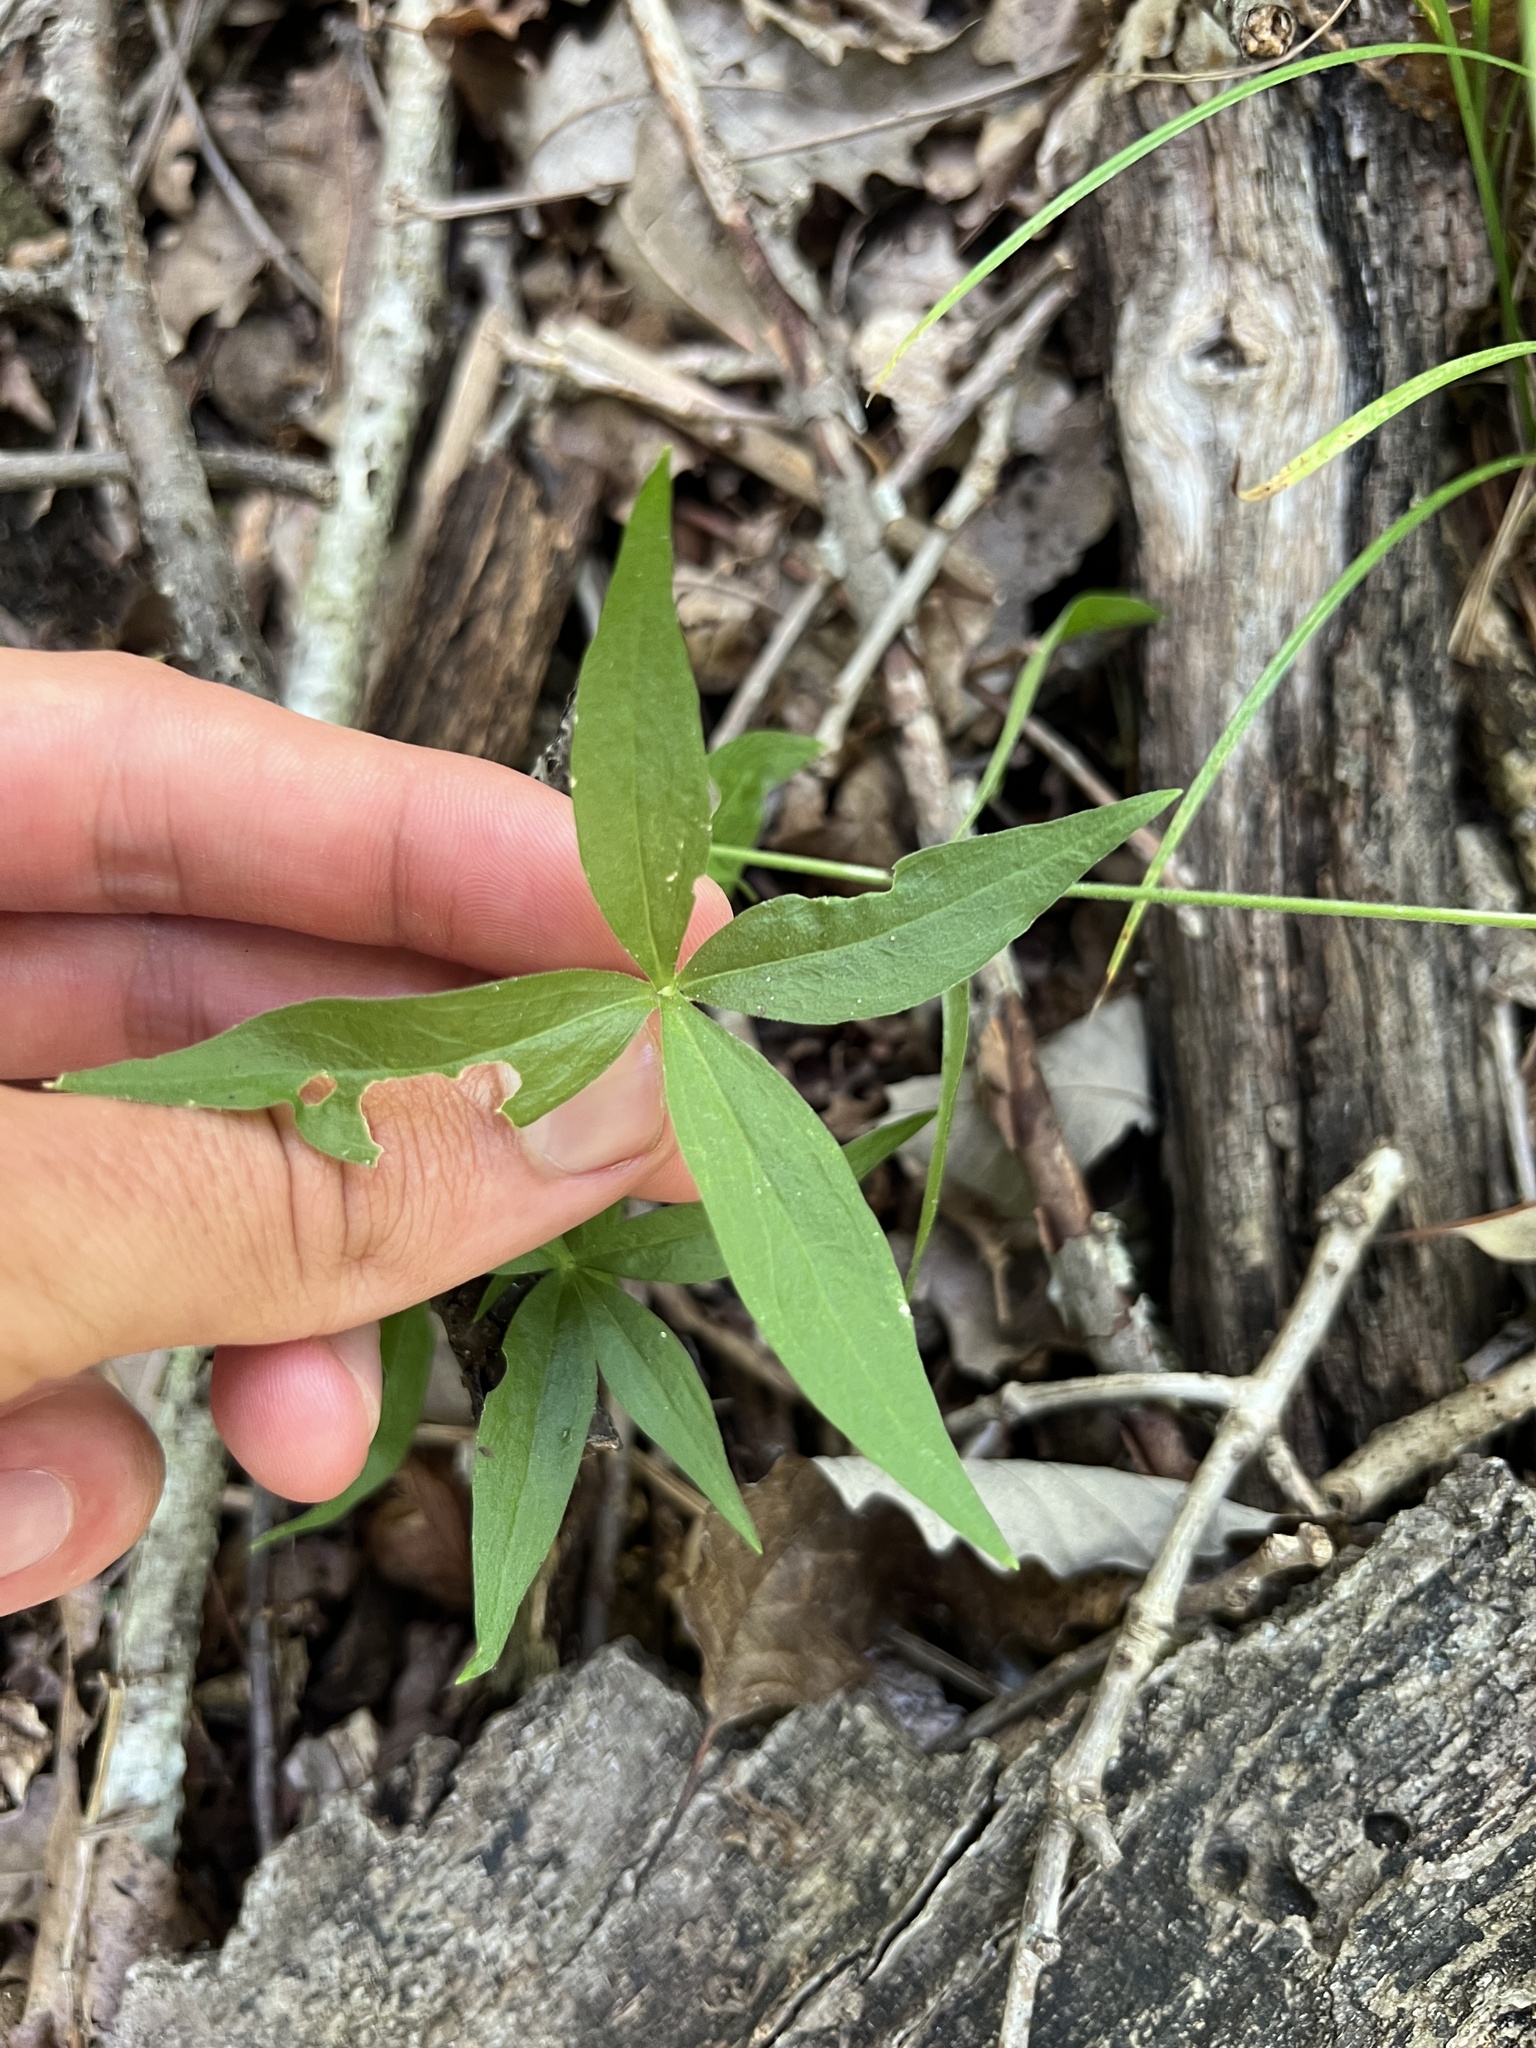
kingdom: Plantae
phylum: Tracheophyta
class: Magnoliopsida
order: Caryophyllales
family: Caryophyllaceae
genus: Silene
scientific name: Silene stellata
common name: Starry campion
